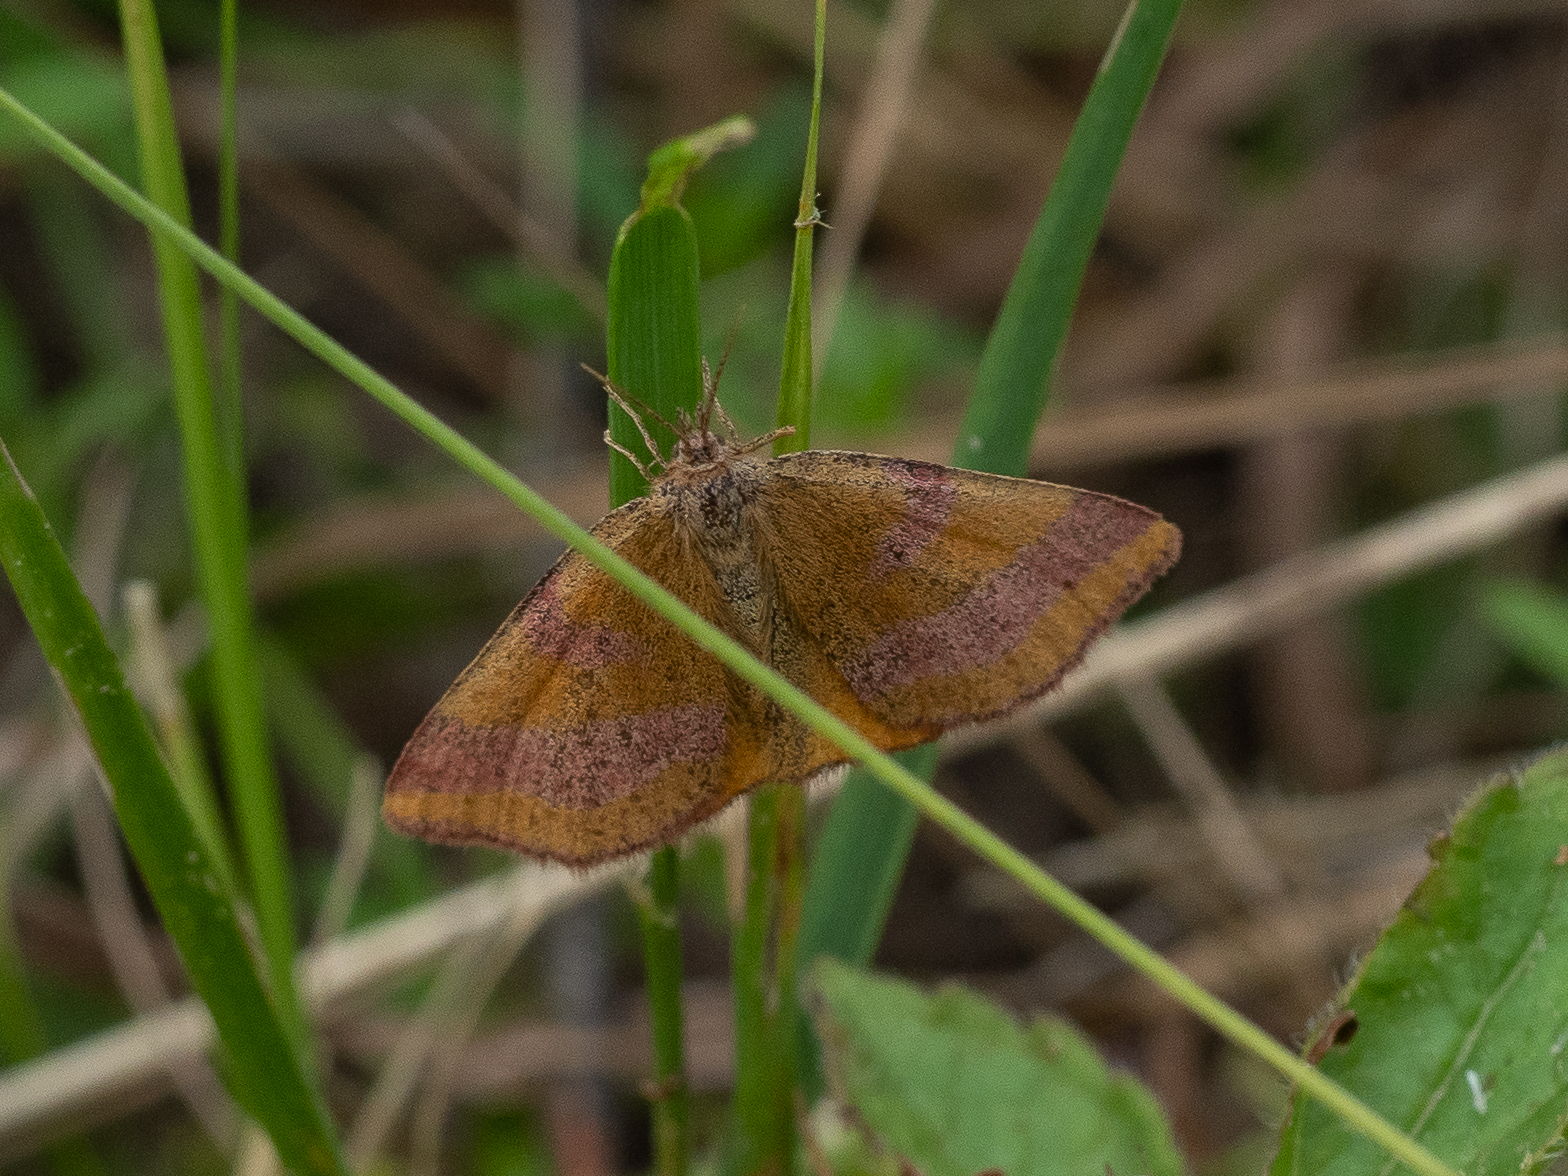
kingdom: Animalia
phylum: Arthropoda
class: Insecta
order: Lepidoptera
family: Geometridae
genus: Lythria
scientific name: Lythria cruentaria
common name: Purple-barred yellow
